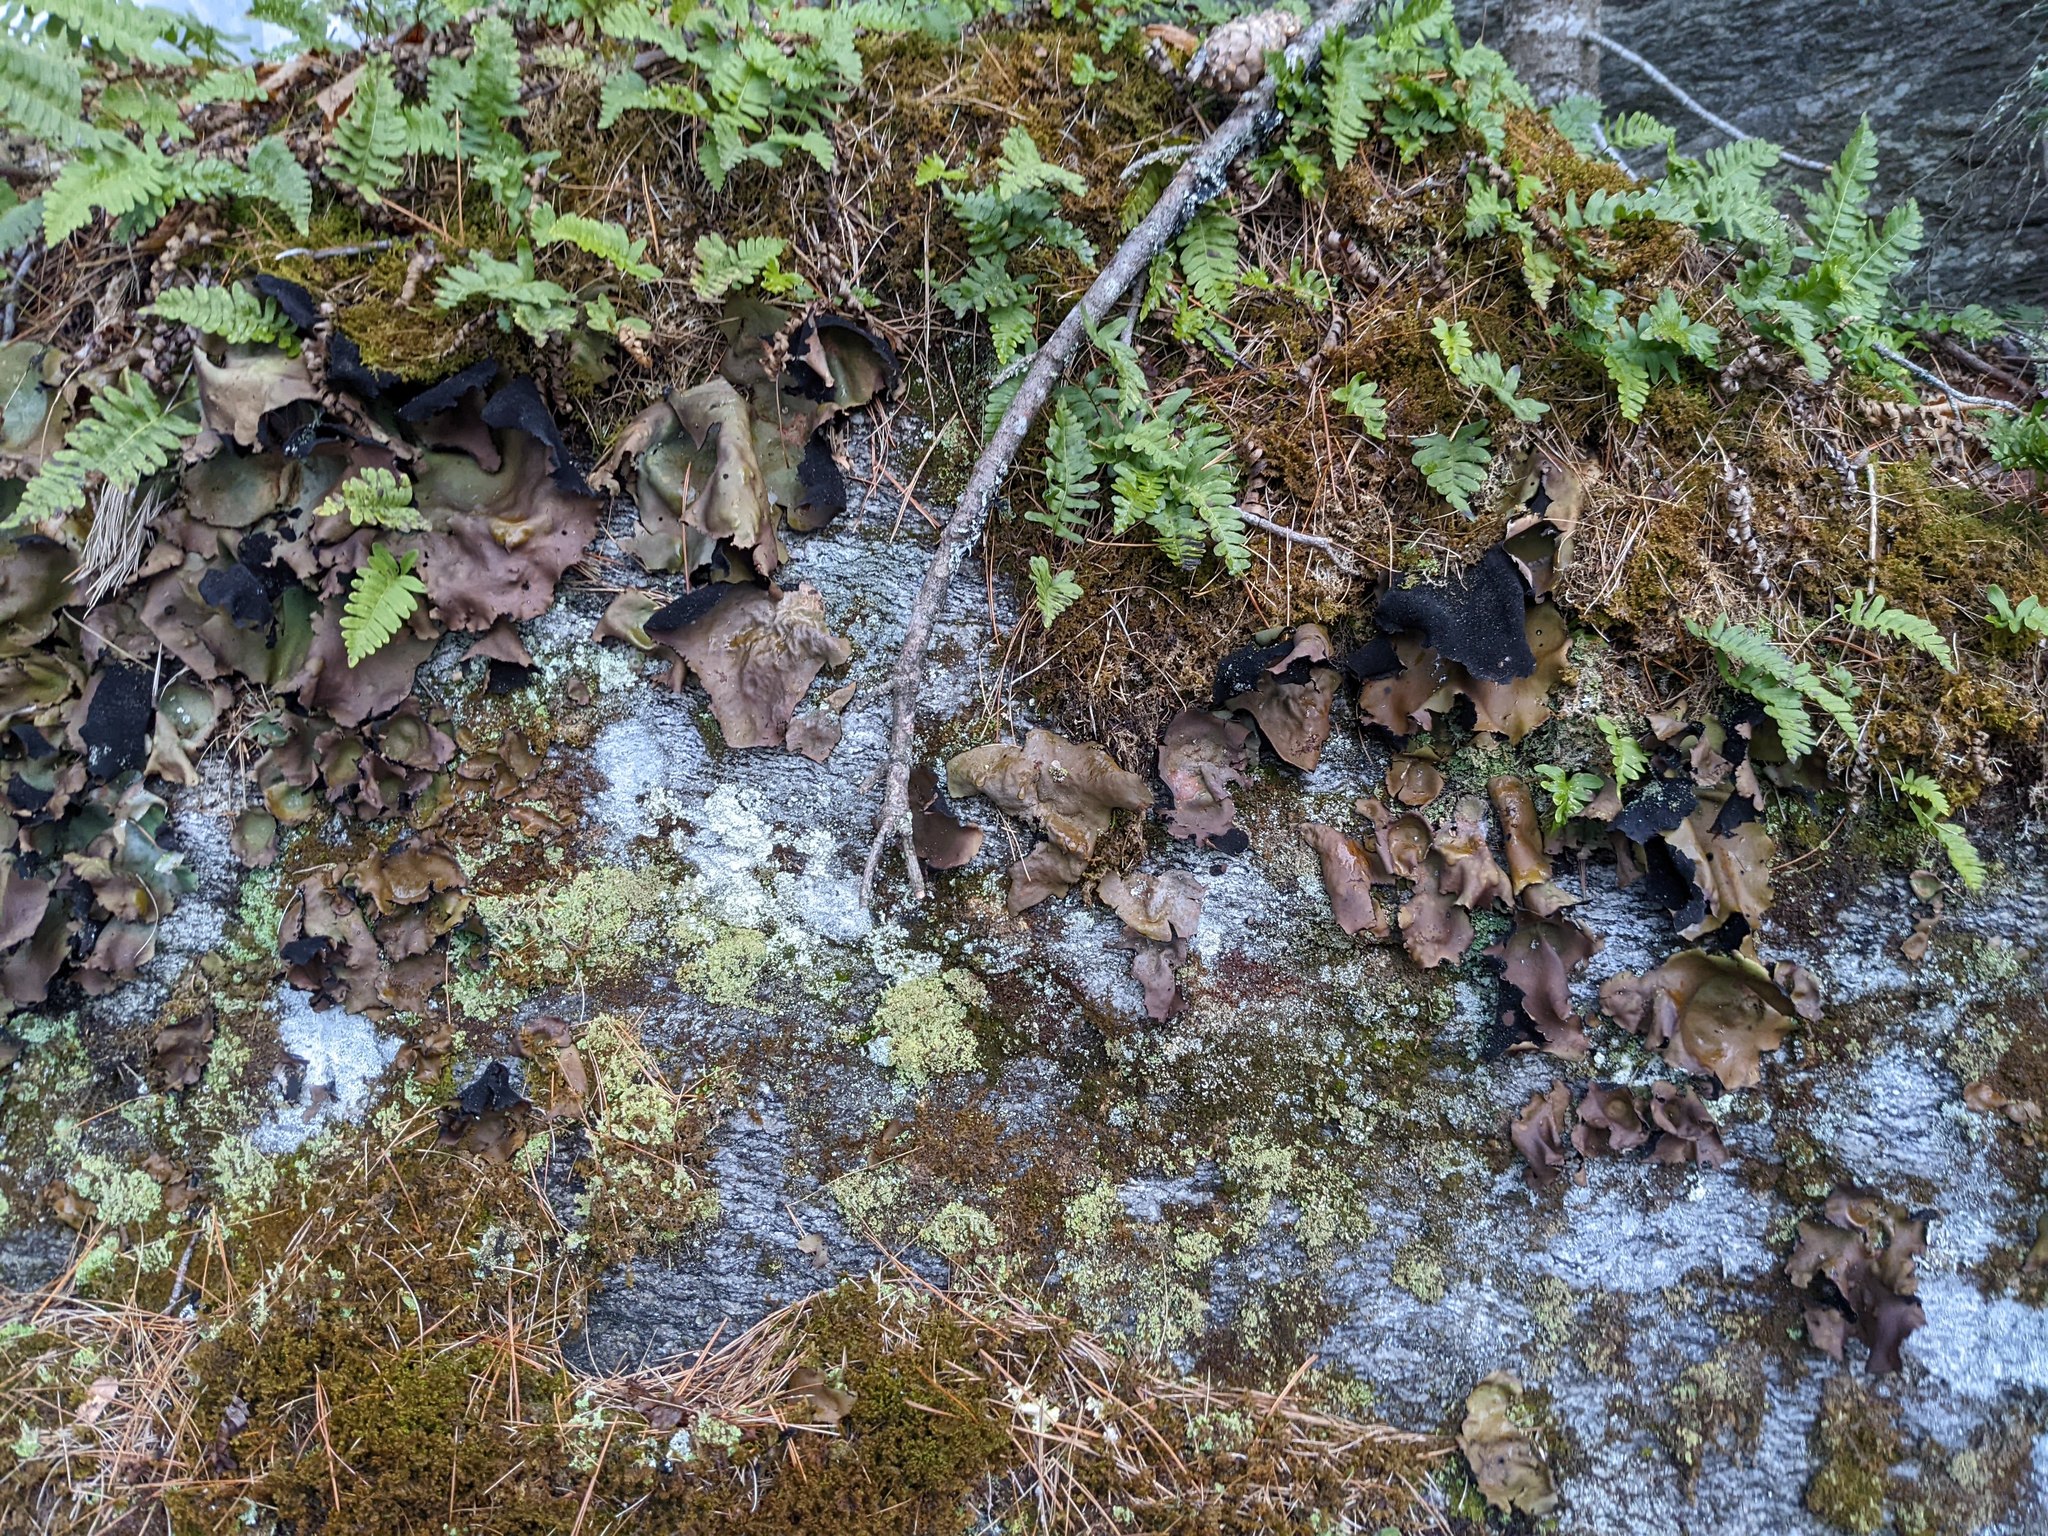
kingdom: Fungi
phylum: Ascomycota
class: Lecanoromycetes
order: Umbilicariales
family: Umbilicariaceae
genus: Umbilicaria
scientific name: Umbilicaria mammulata
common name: Smooth rock tripe
